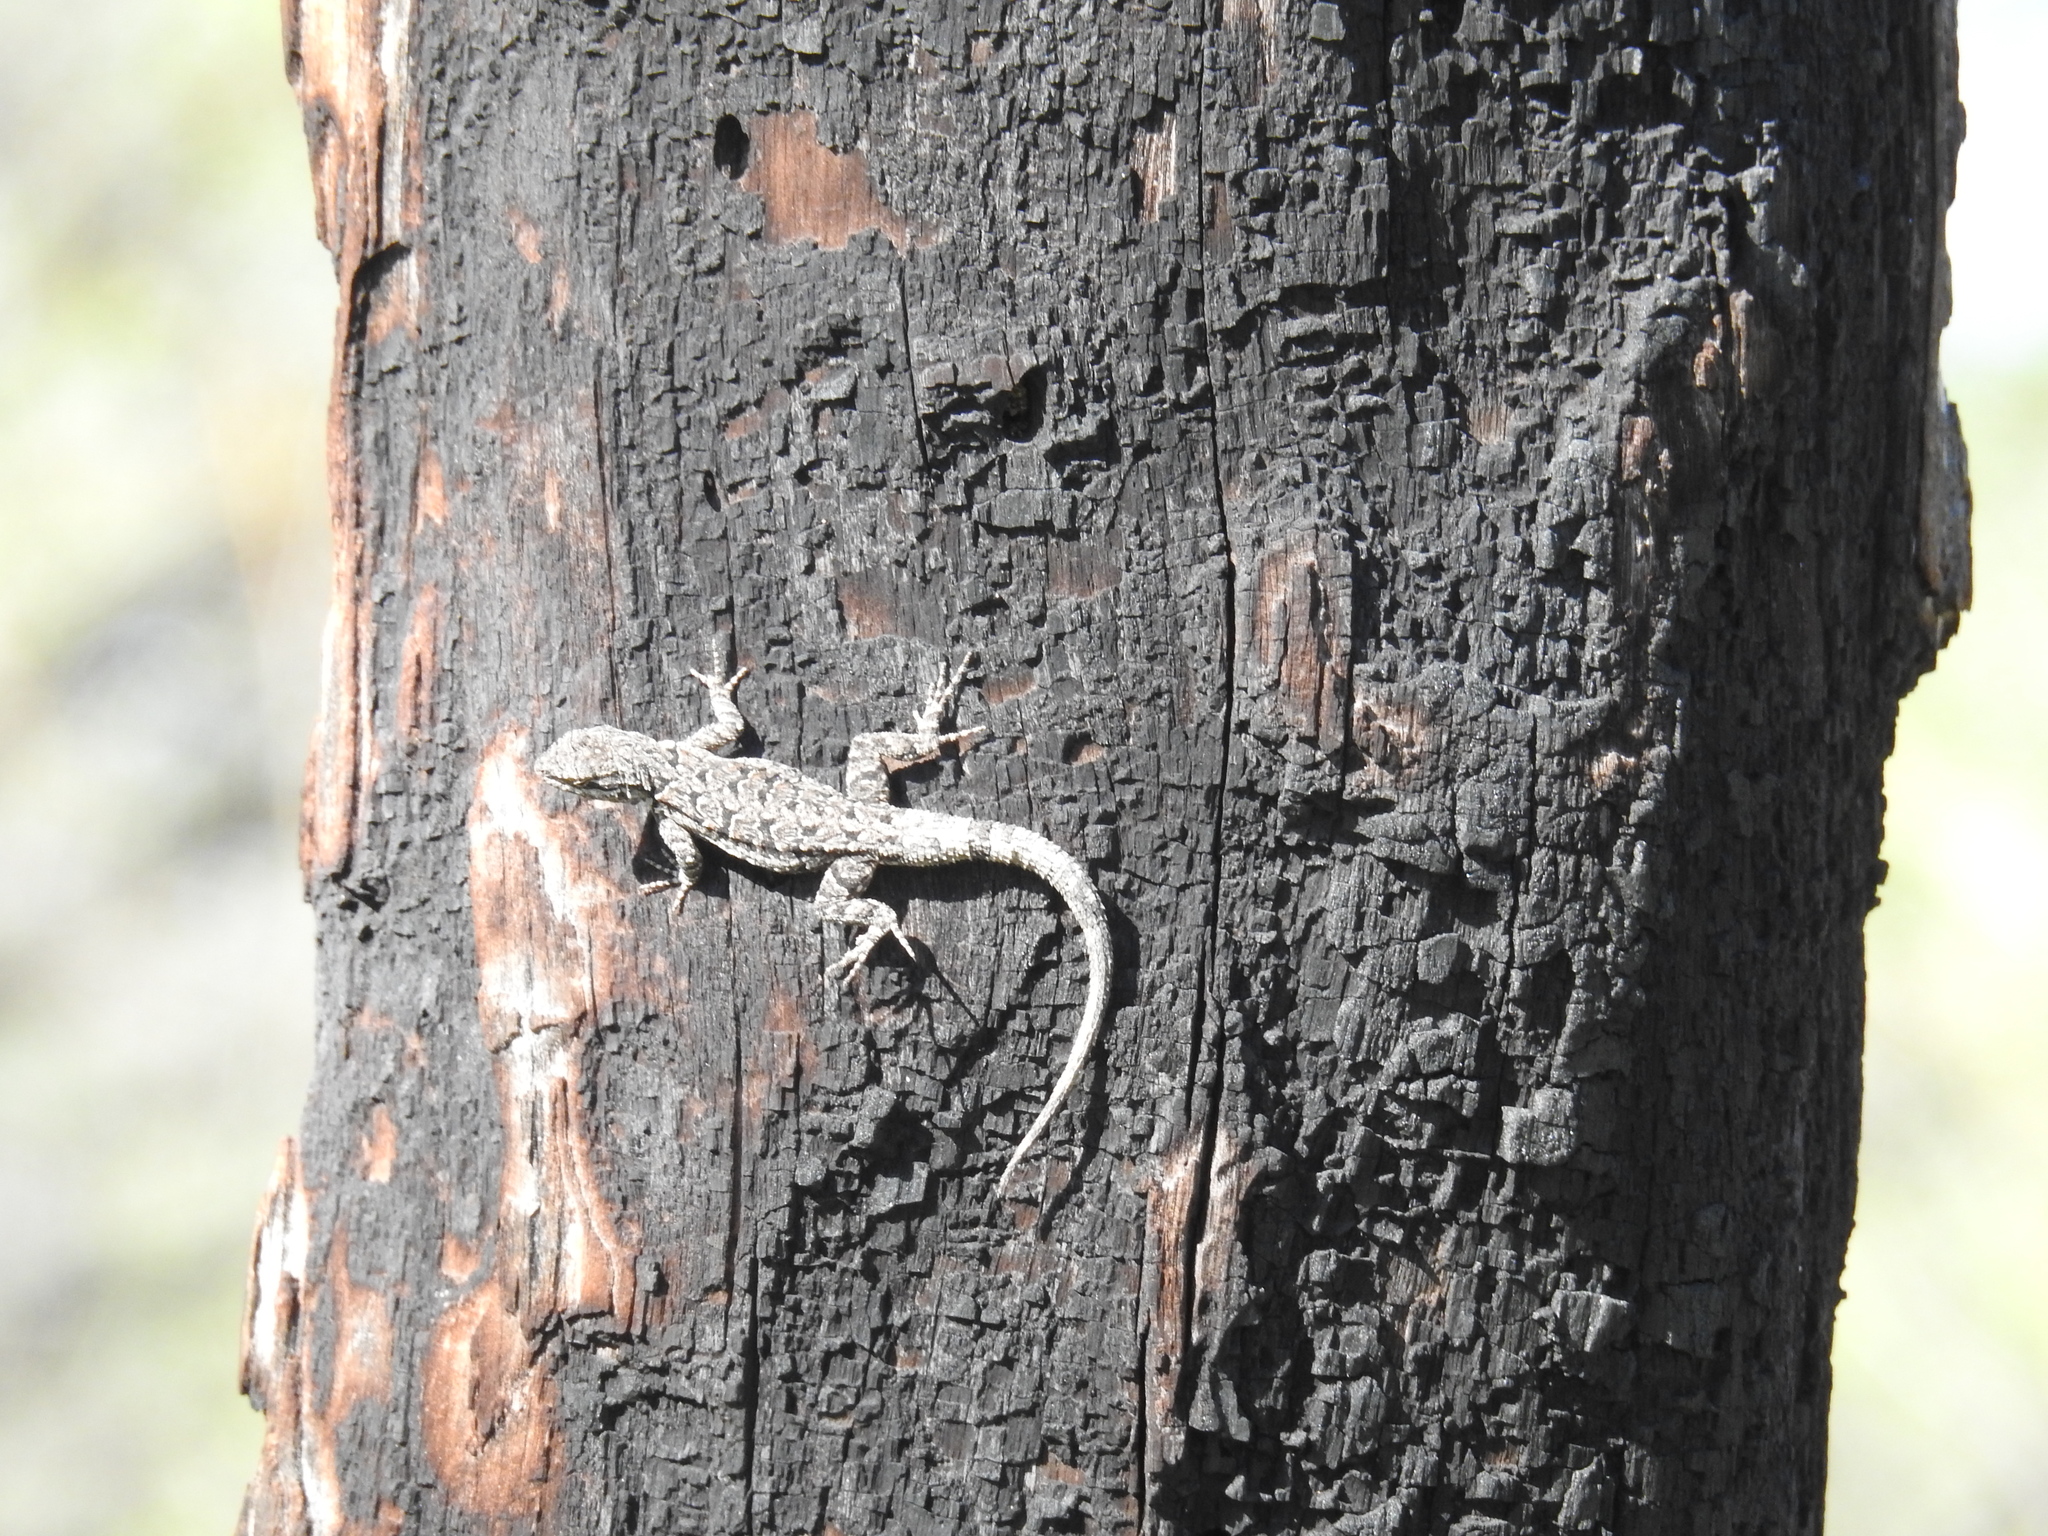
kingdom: Animalia
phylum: Chordata
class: Squamata
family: Phrynosomatidae
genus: Urosaurus
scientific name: Urosaurus ornatus
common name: Ornate tree lizard
